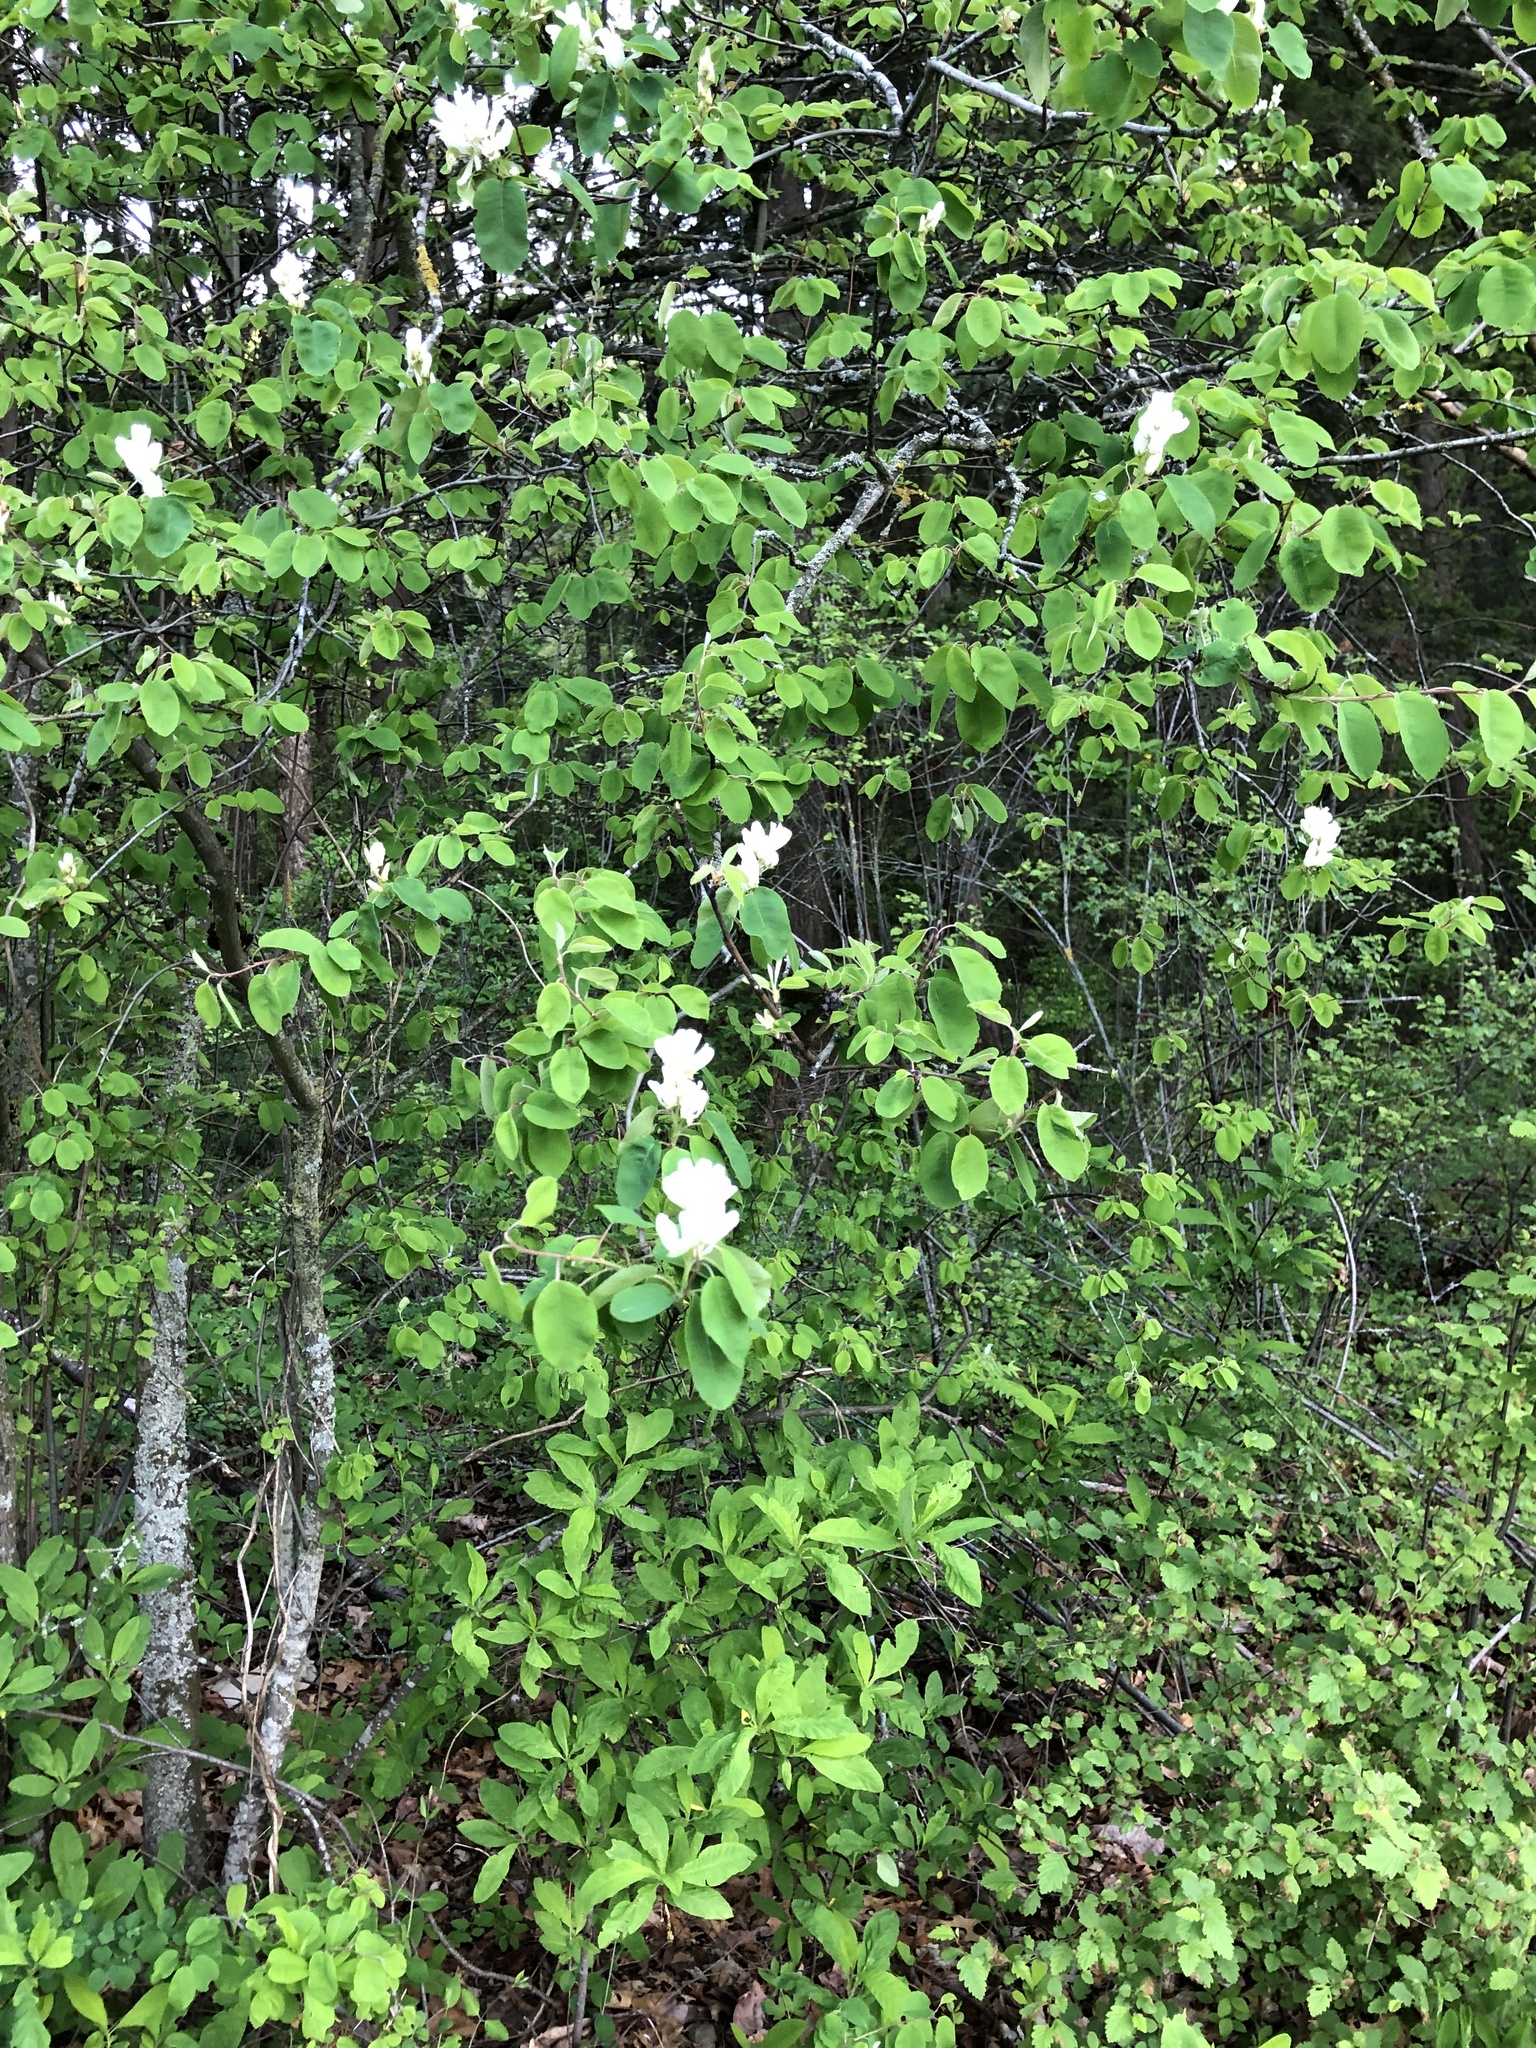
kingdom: Plantae
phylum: Tracheophyta
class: Magnoliopsida
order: Rosales
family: Rosaceae
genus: Amelanchier
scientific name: Amelanchier alnifolia
